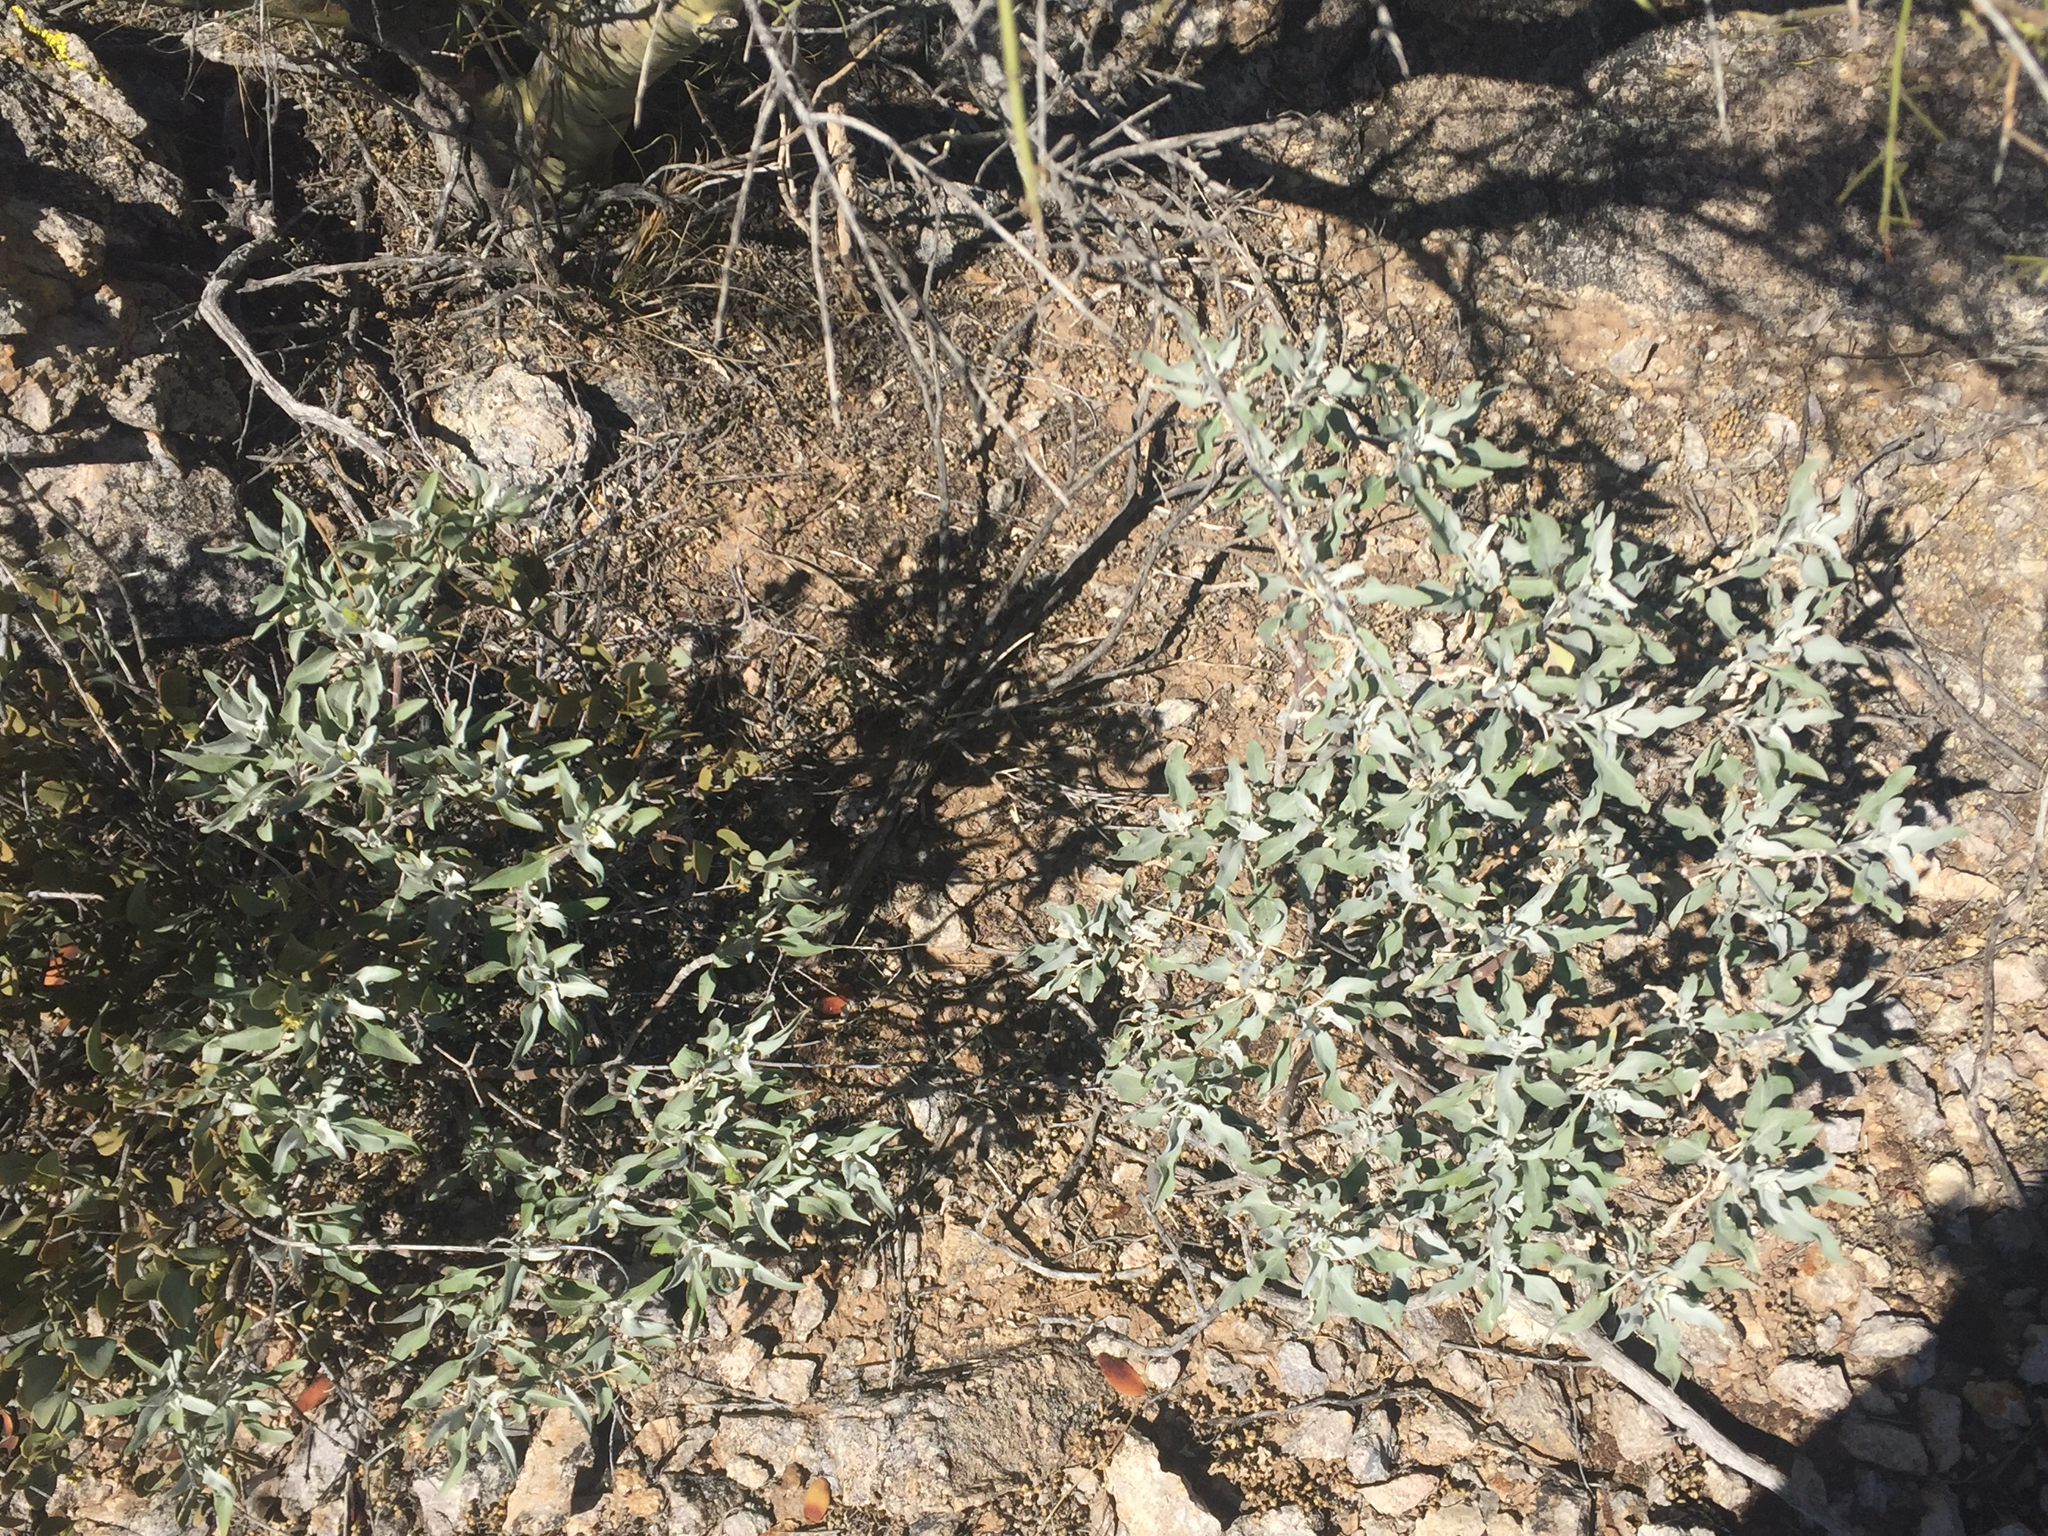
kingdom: Plantae
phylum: Tracheophyta
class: Magnoliopsida
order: Asterales
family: Asteraceae
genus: Encelia
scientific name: Encelia farinosa
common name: Brittlebush
